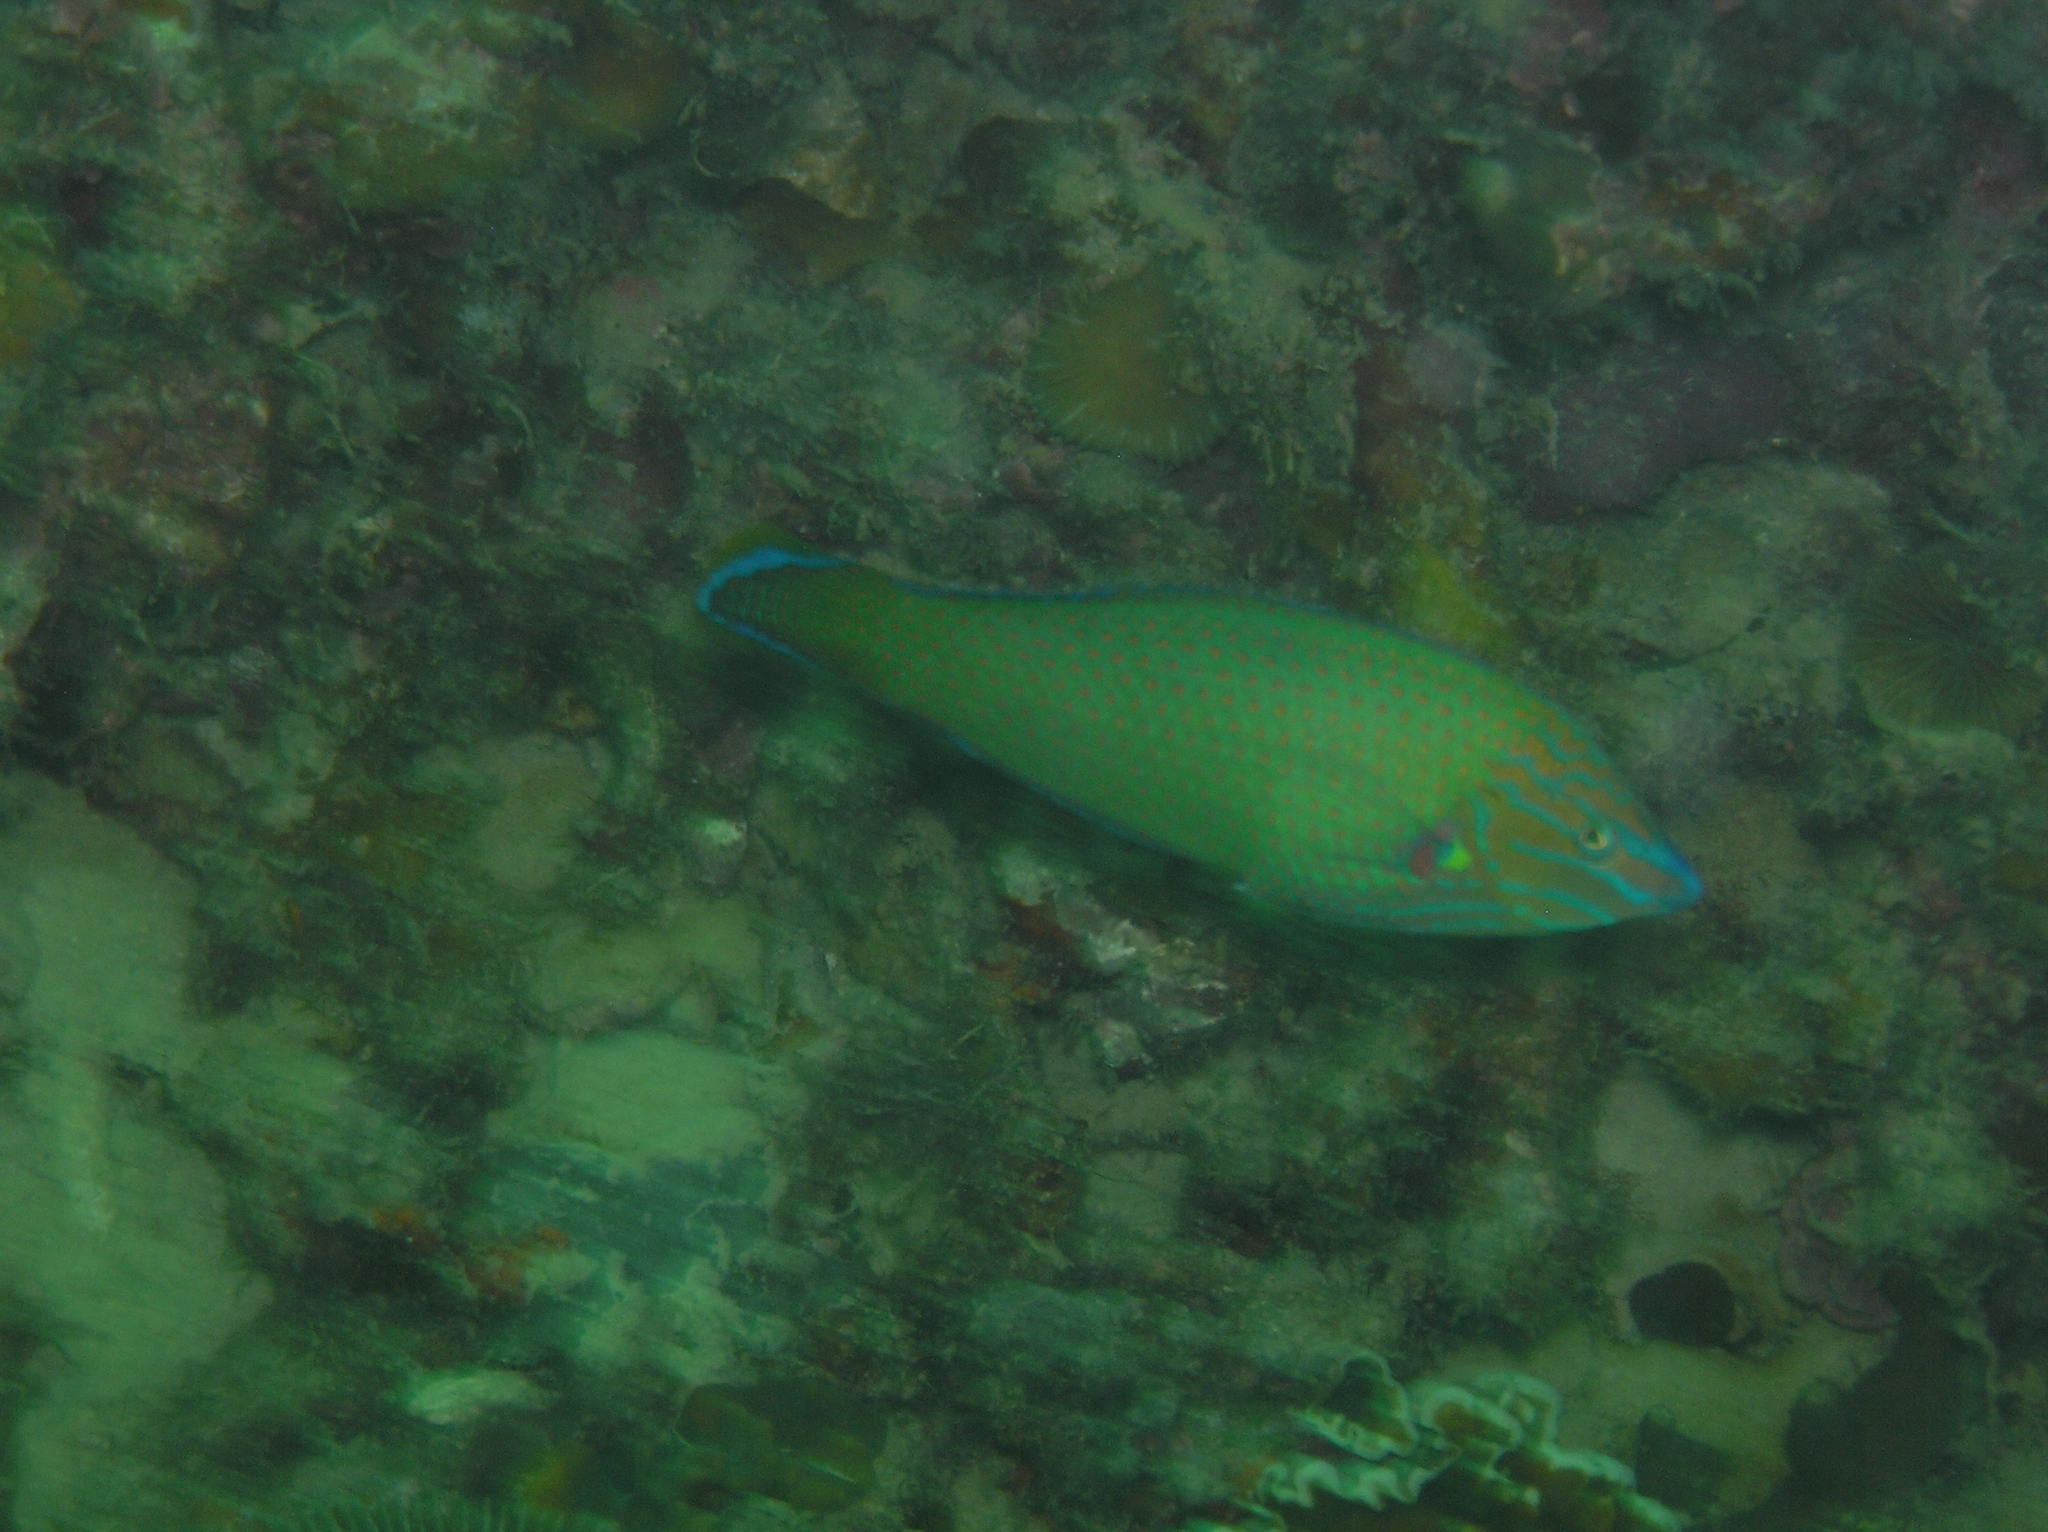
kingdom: Animalia
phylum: Chordata
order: Perciformes
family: Labridae
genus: Halichoeres
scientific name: Halichoeres leucurus
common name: Grey-head wrasse
